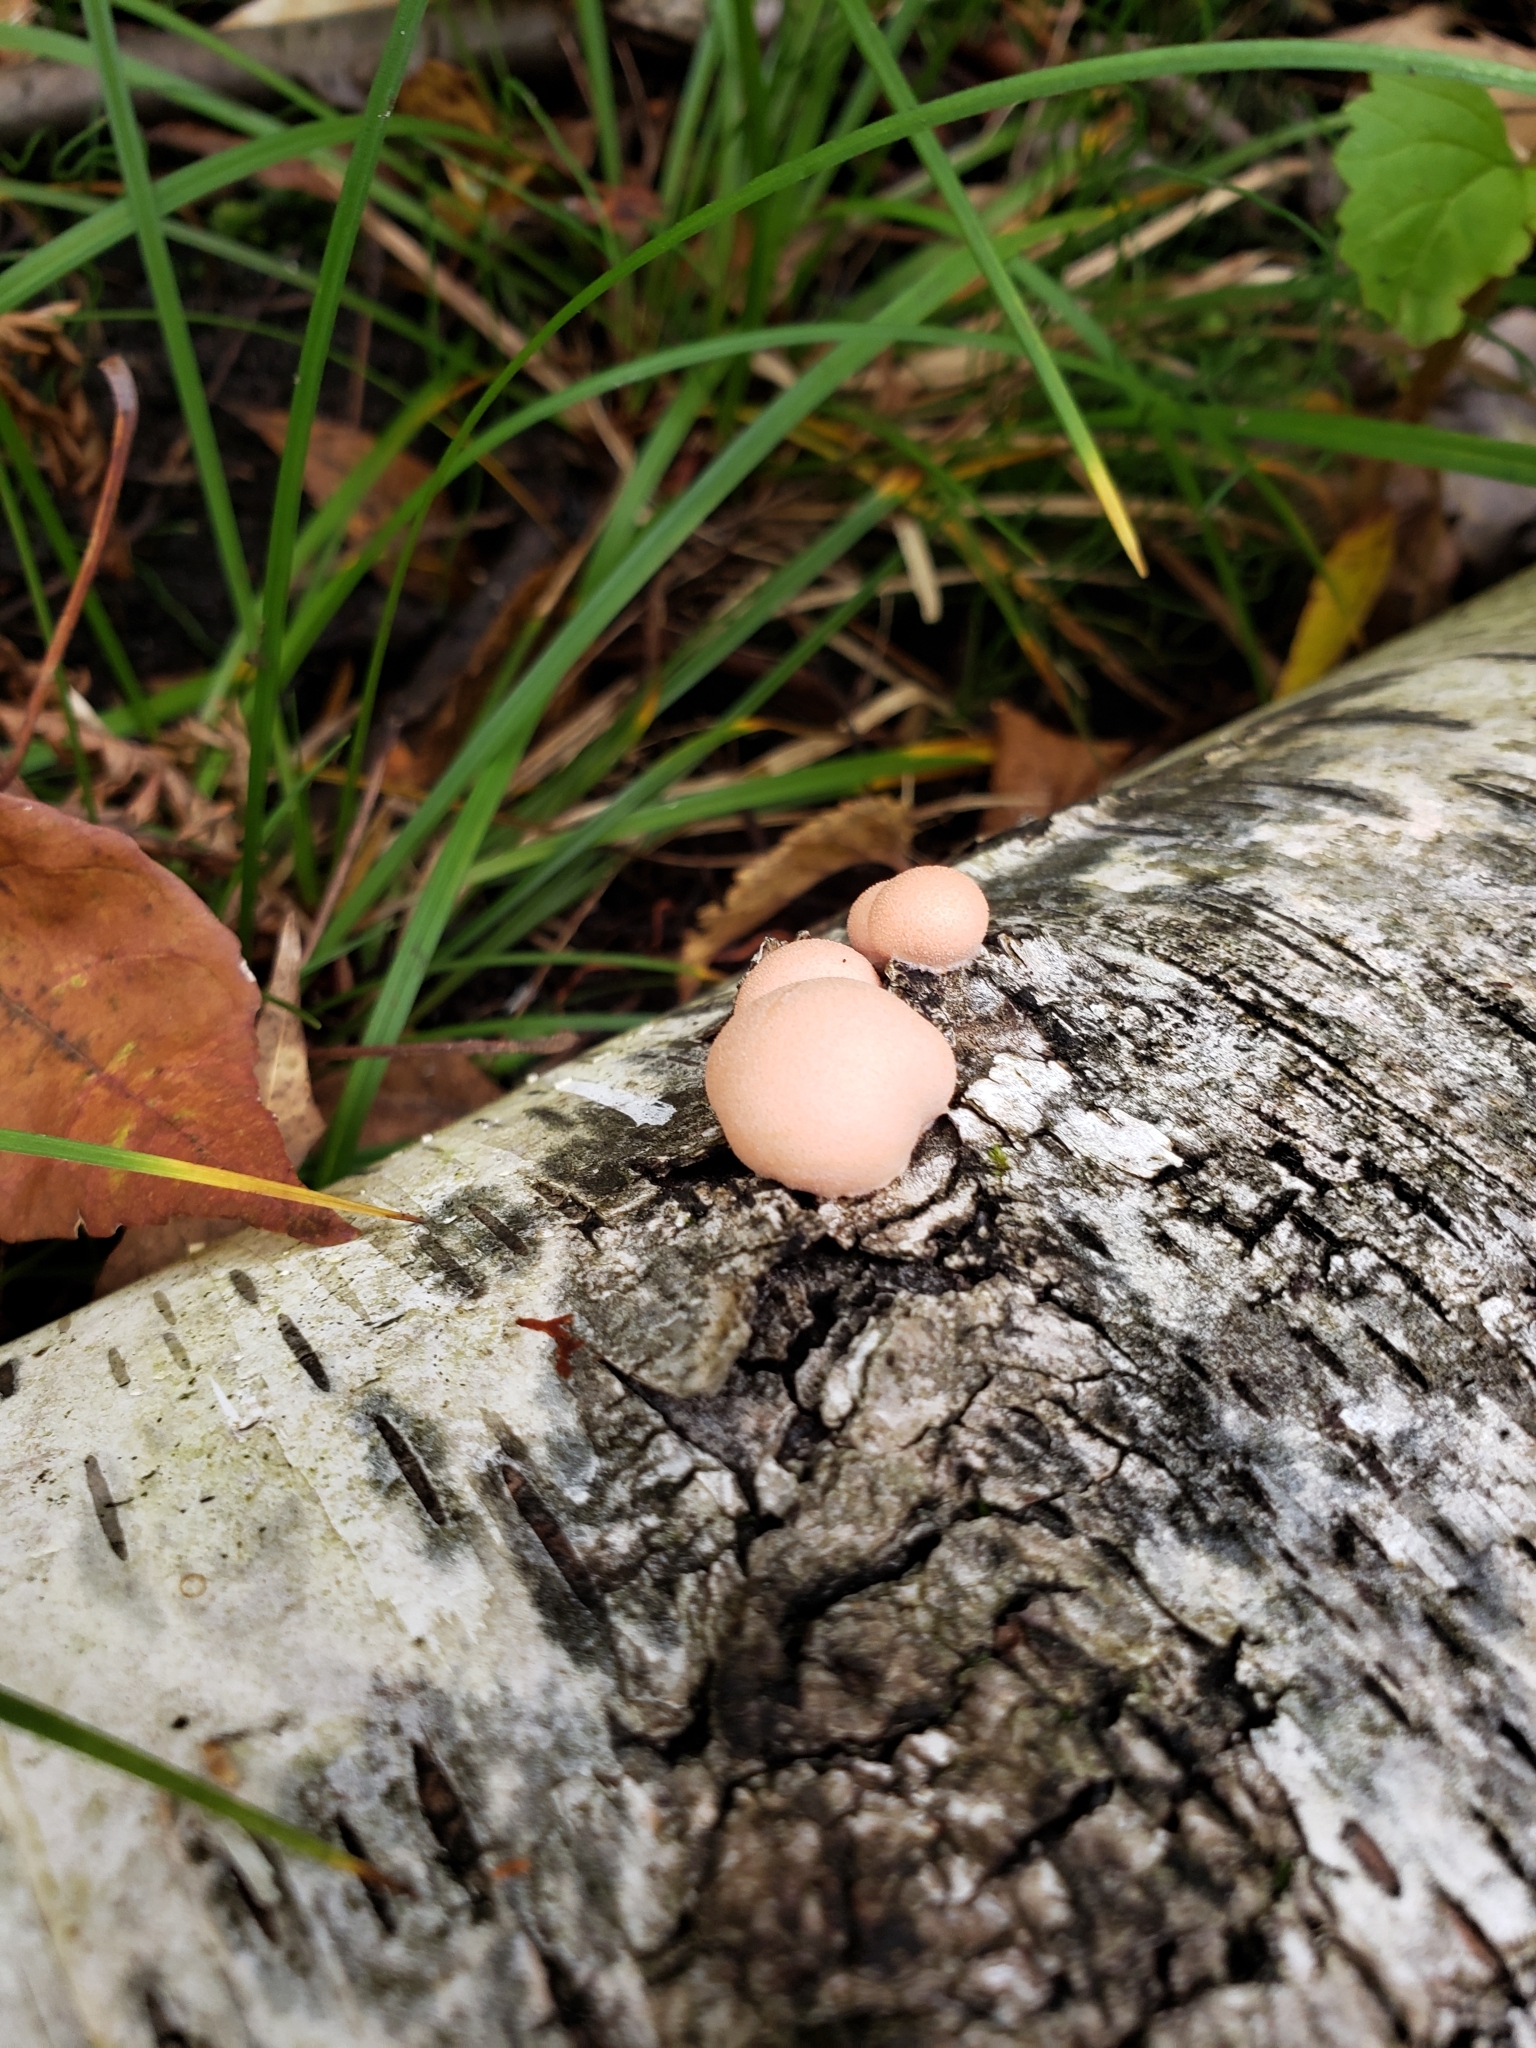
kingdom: Protozoa
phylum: Mycetozoa
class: Myxomycetes
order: Cribrariales
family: Tubiferaceae
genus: Lycogala
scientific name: Lycogala epidendrum
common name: Wolf's milk
